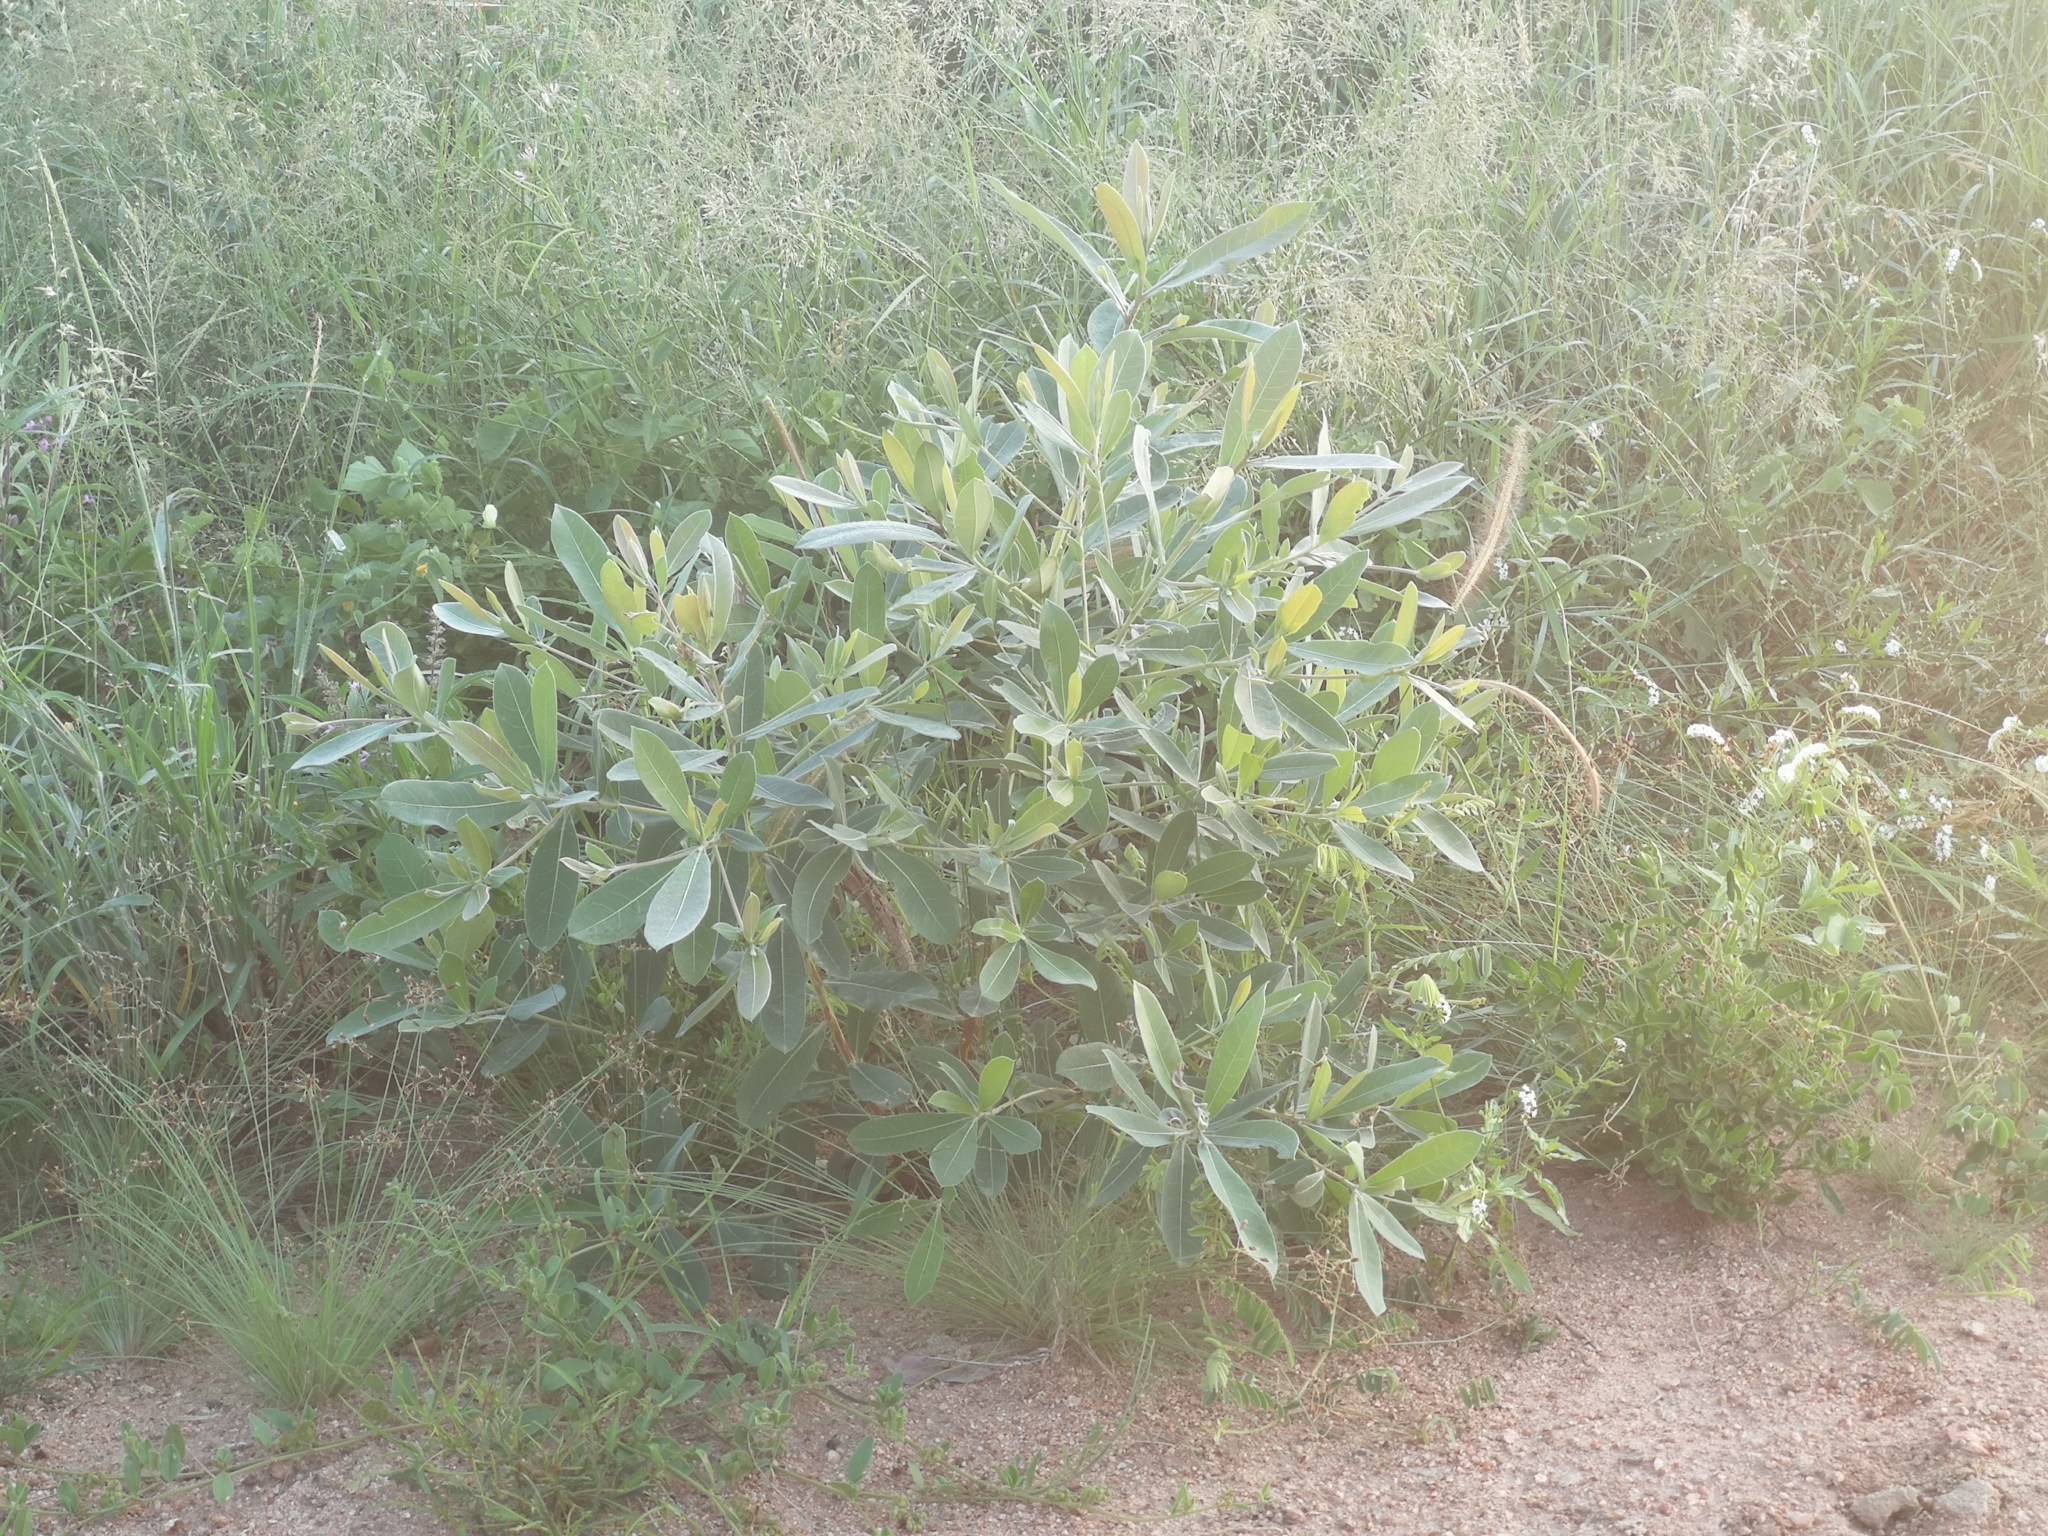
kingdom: Plantae
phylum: Tracheophyta
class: Magnoliopsida
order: Myrtales
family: Combretaceae
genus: Terminalia
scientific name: Terminalia sericea
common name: Clusterleaf
